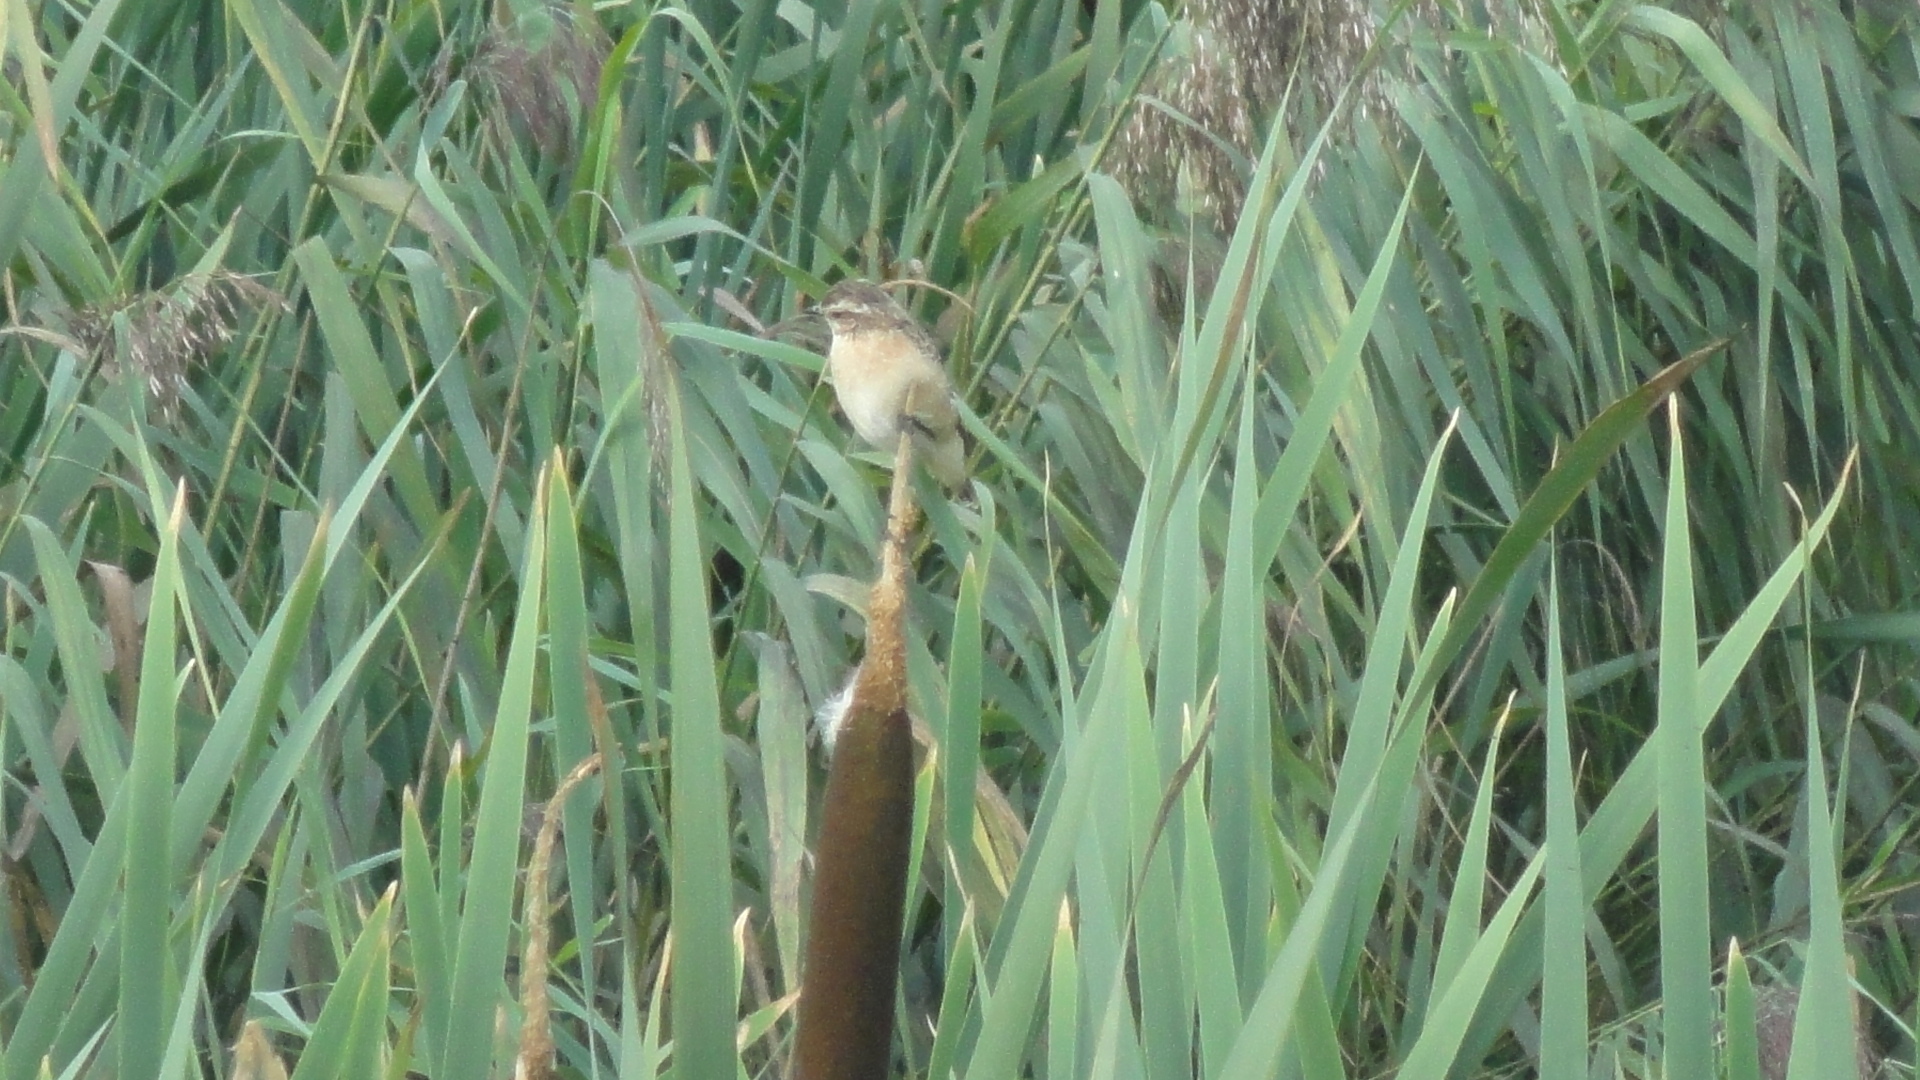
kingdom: Animalia
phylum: Chordata
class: Aves
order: Passeriformes
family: Muscicapidae
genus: Saxicola
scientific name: Saxicola rubetra
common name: Whinchat
